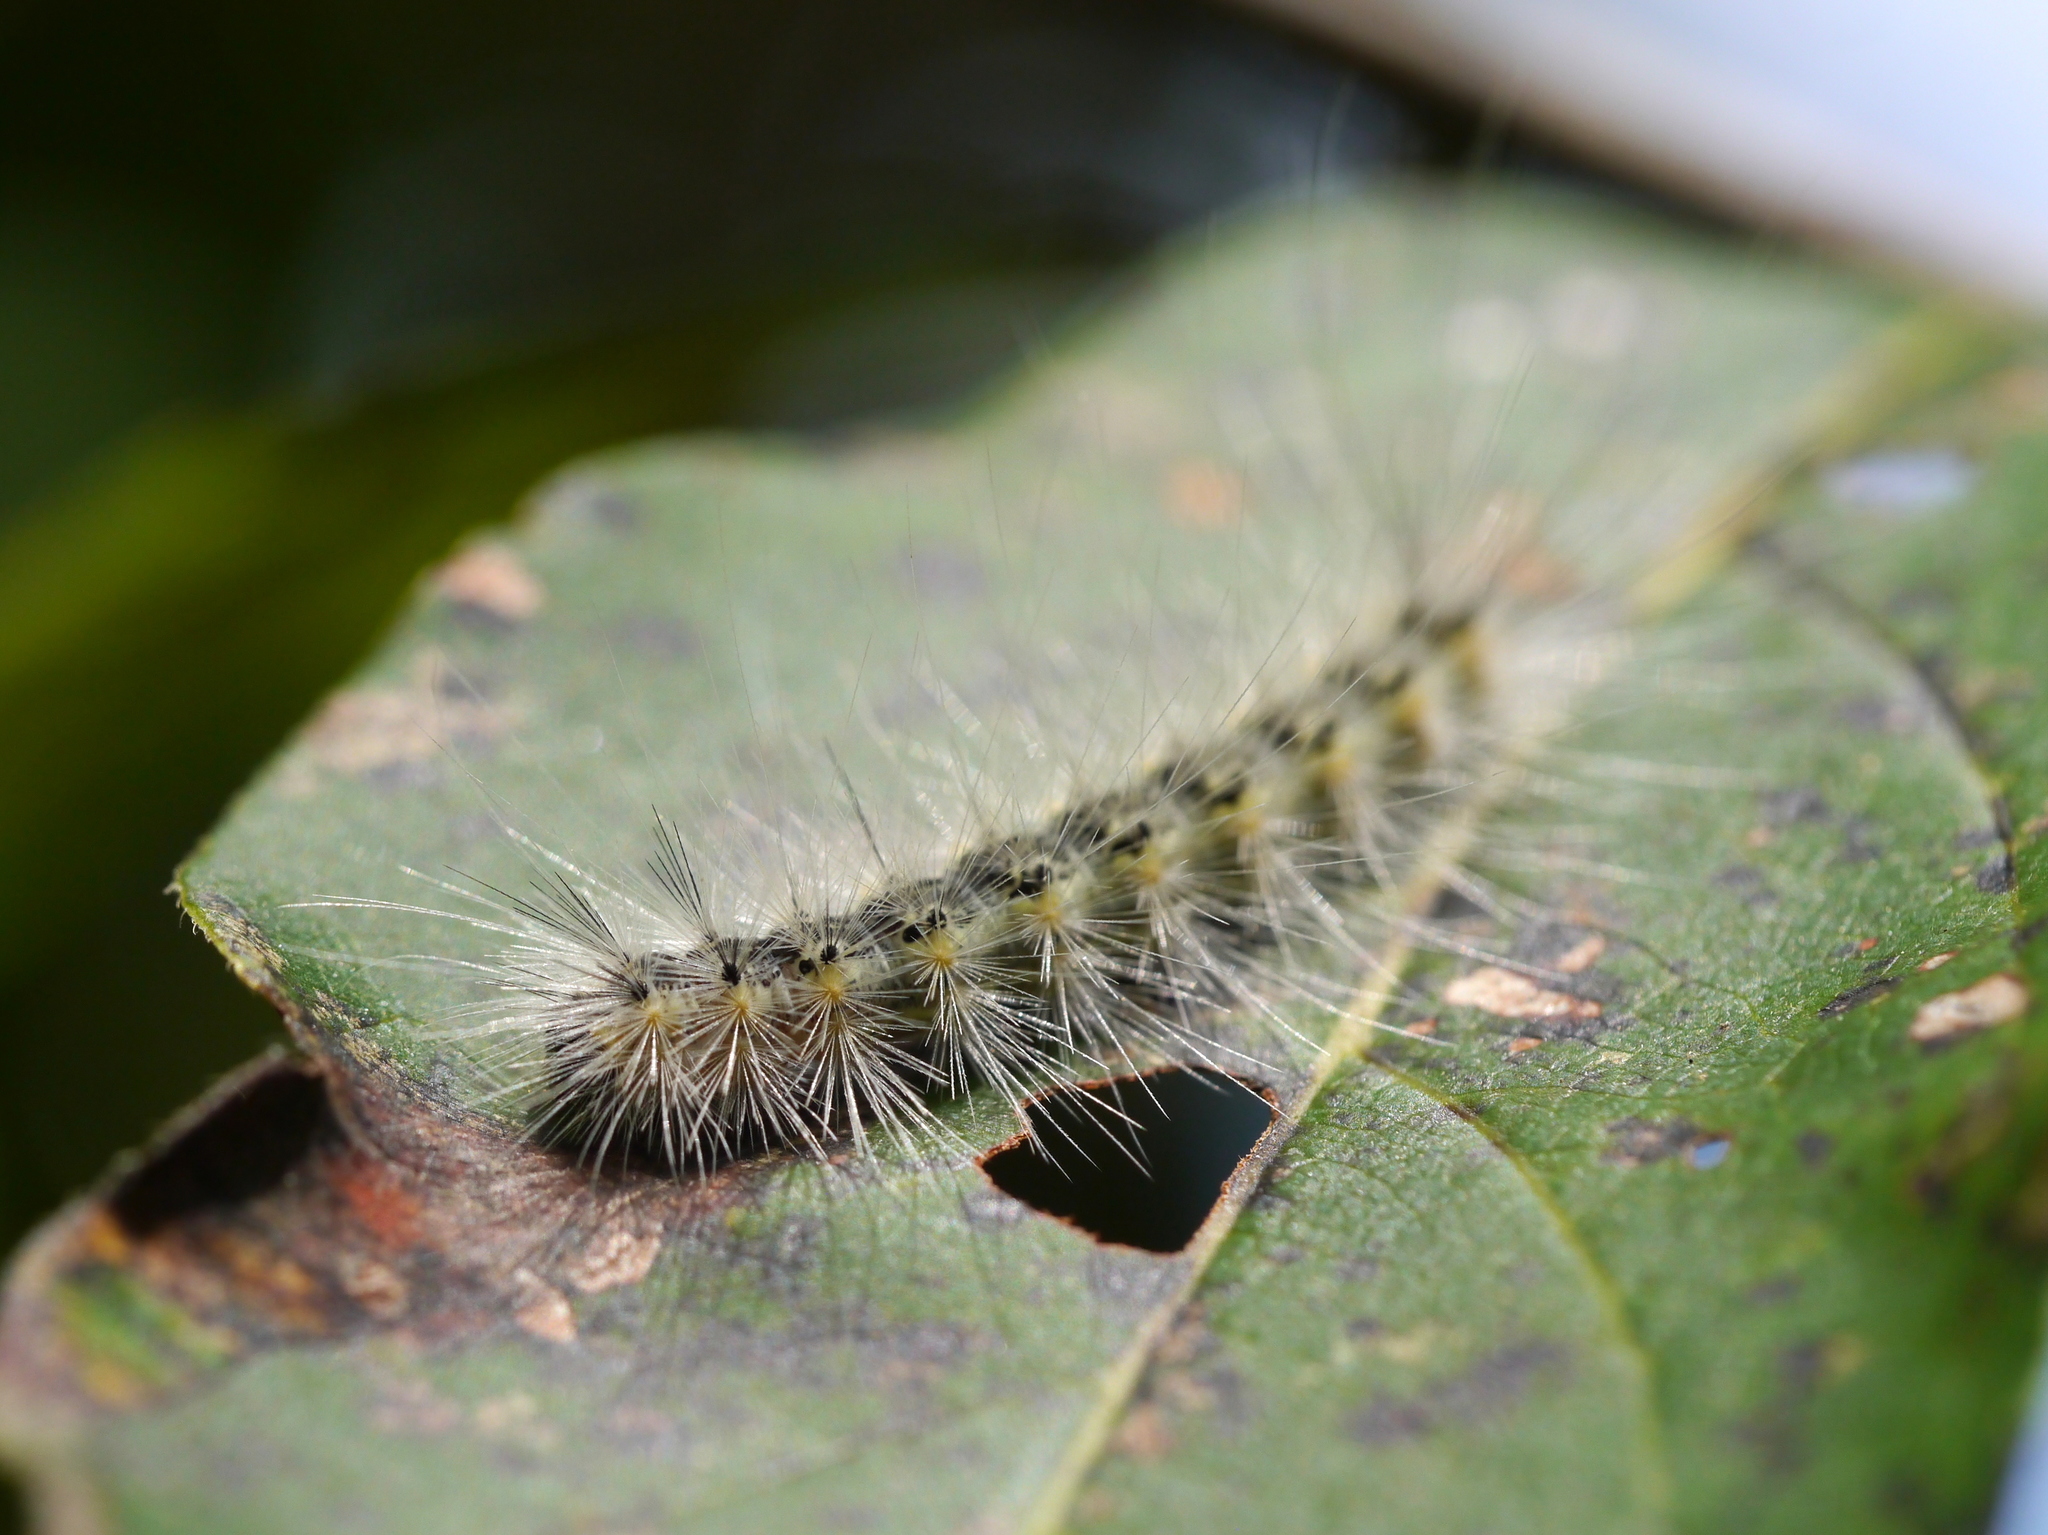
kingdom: Animalia
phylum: Arthropoda
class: Insecta
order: Lepidoptera
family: Erebidae
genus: Hyphantria
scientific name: Hyphantria cunea
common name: American white moth
